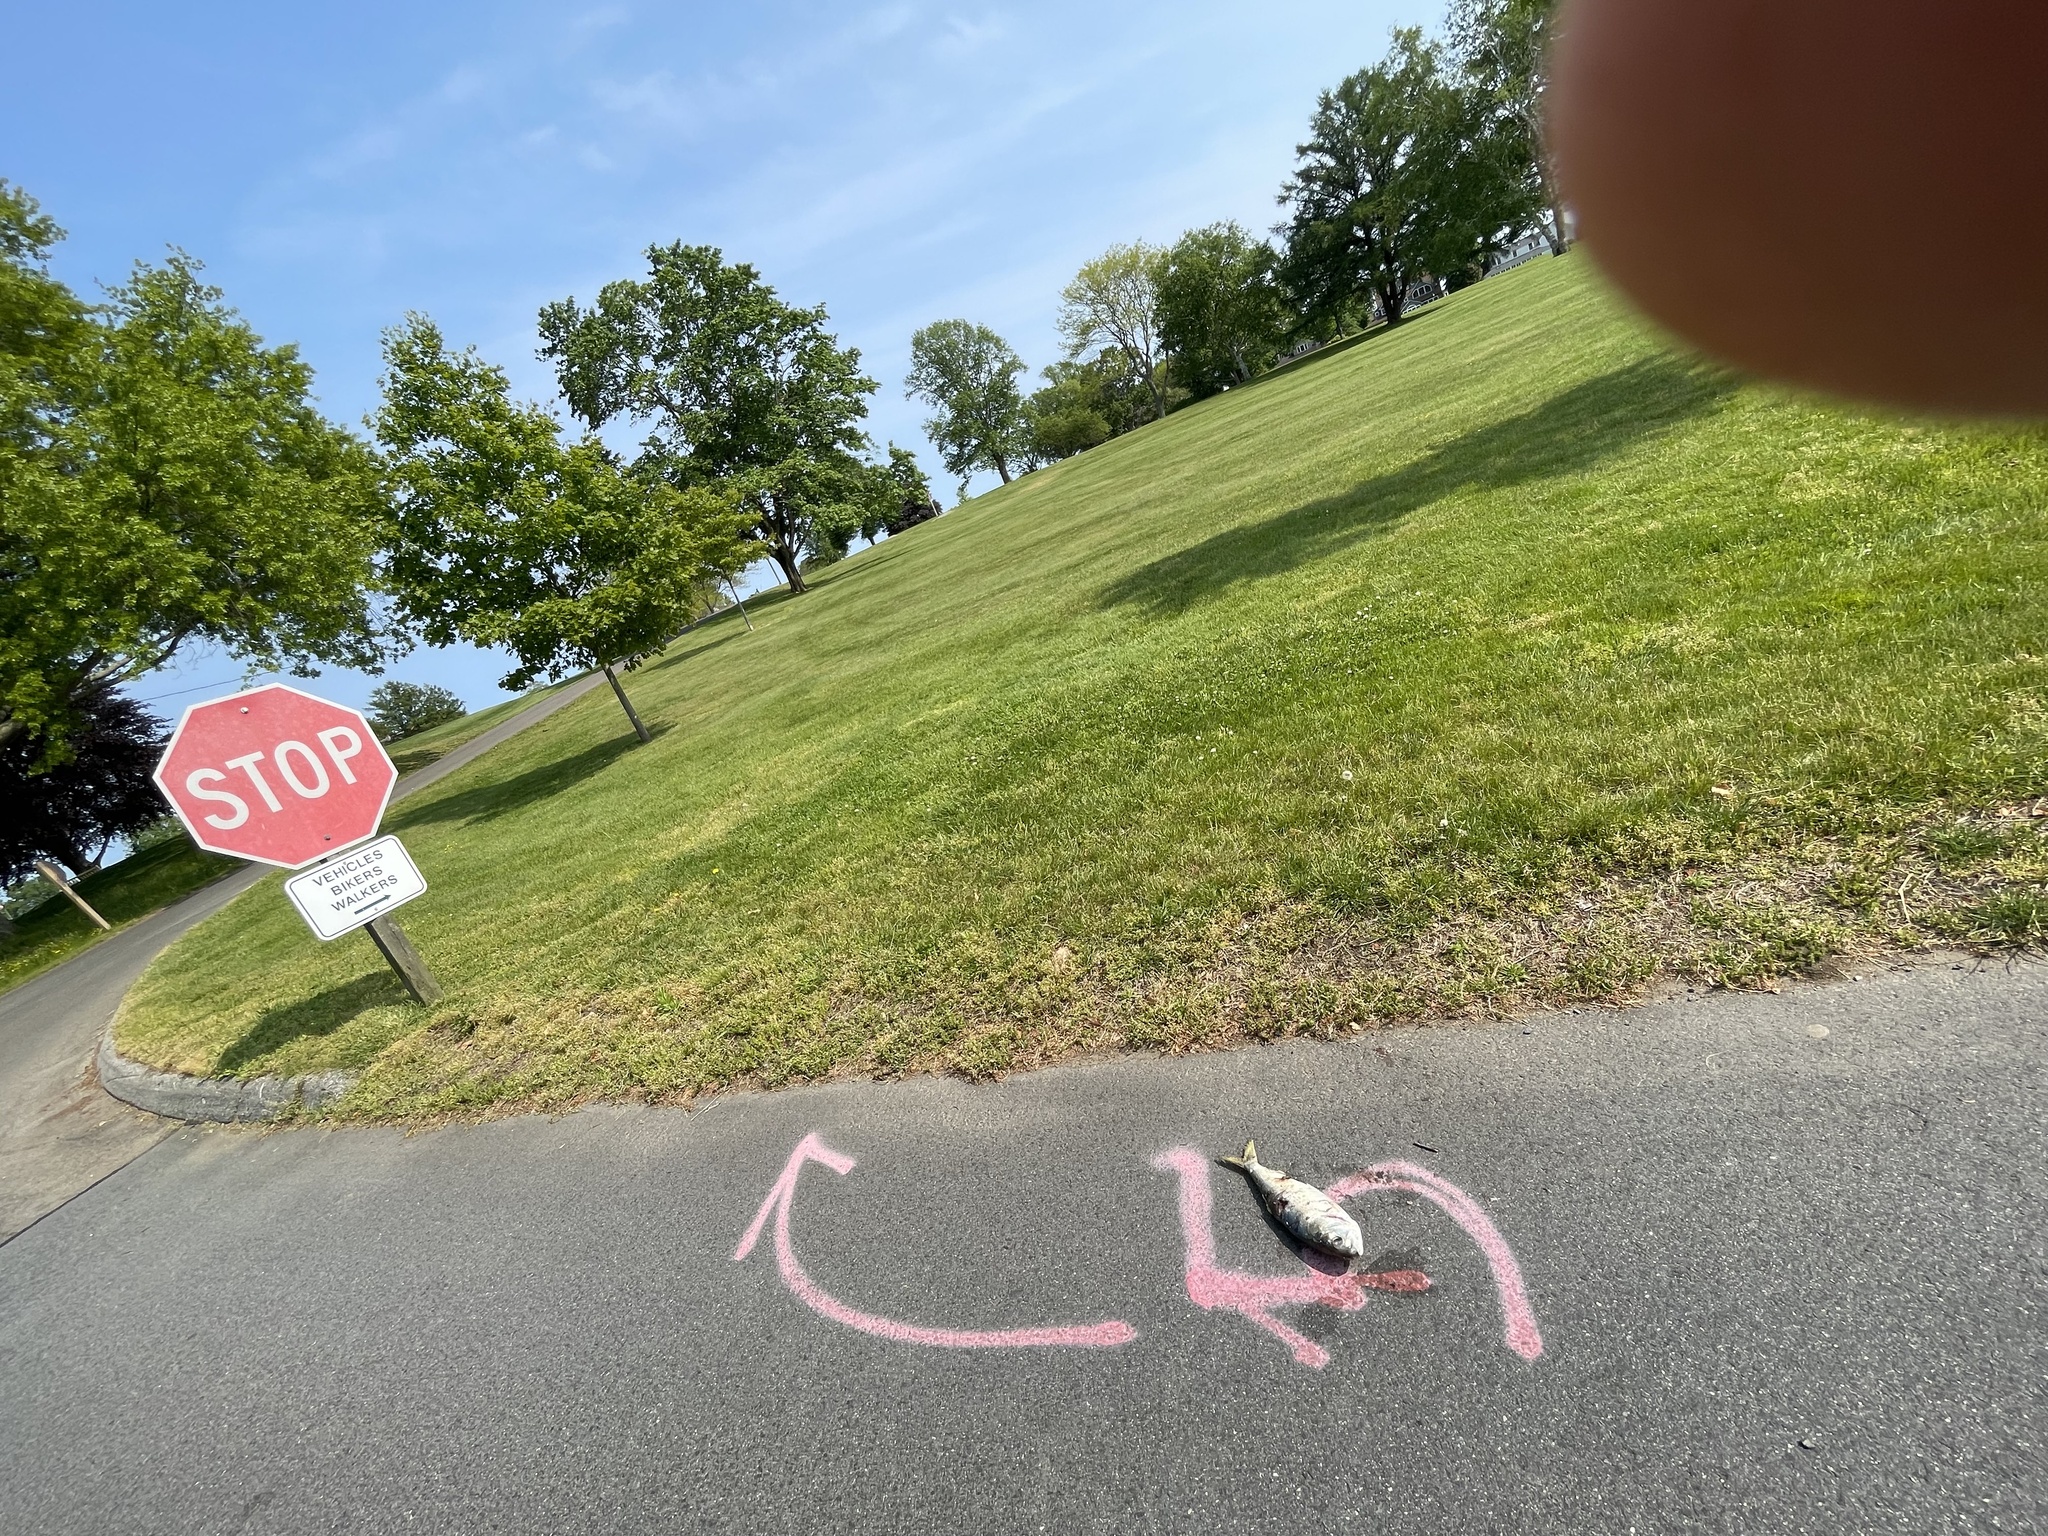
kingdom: Animalia
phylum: Chordata
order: Clupeiformes
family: Clupeidae
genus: Brevoortia
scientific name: Brevoortia tyrannus
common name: Atlantic menhaden
